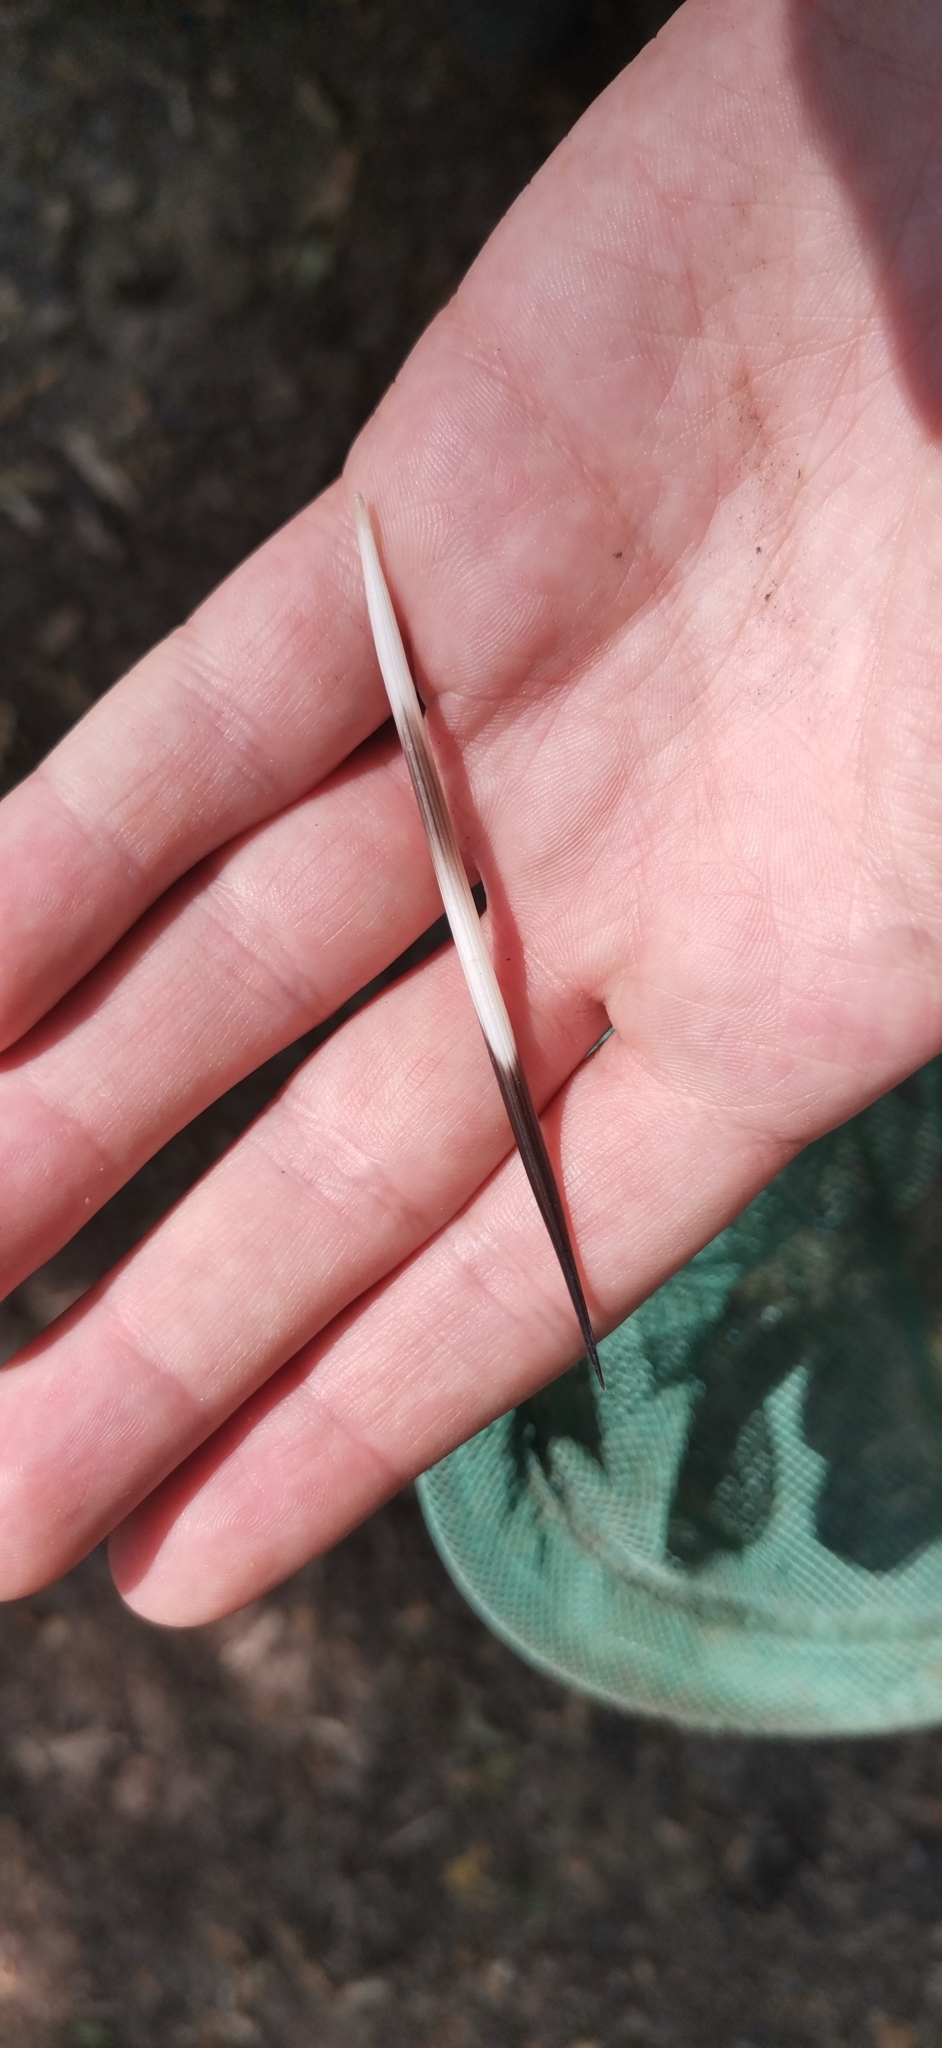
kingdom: Animalia
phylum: Chordata
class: Mammalia
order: Rodentia
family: Hystricidae
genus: Hystrix
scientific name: Hystrix cristata
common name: Crested porcupine
